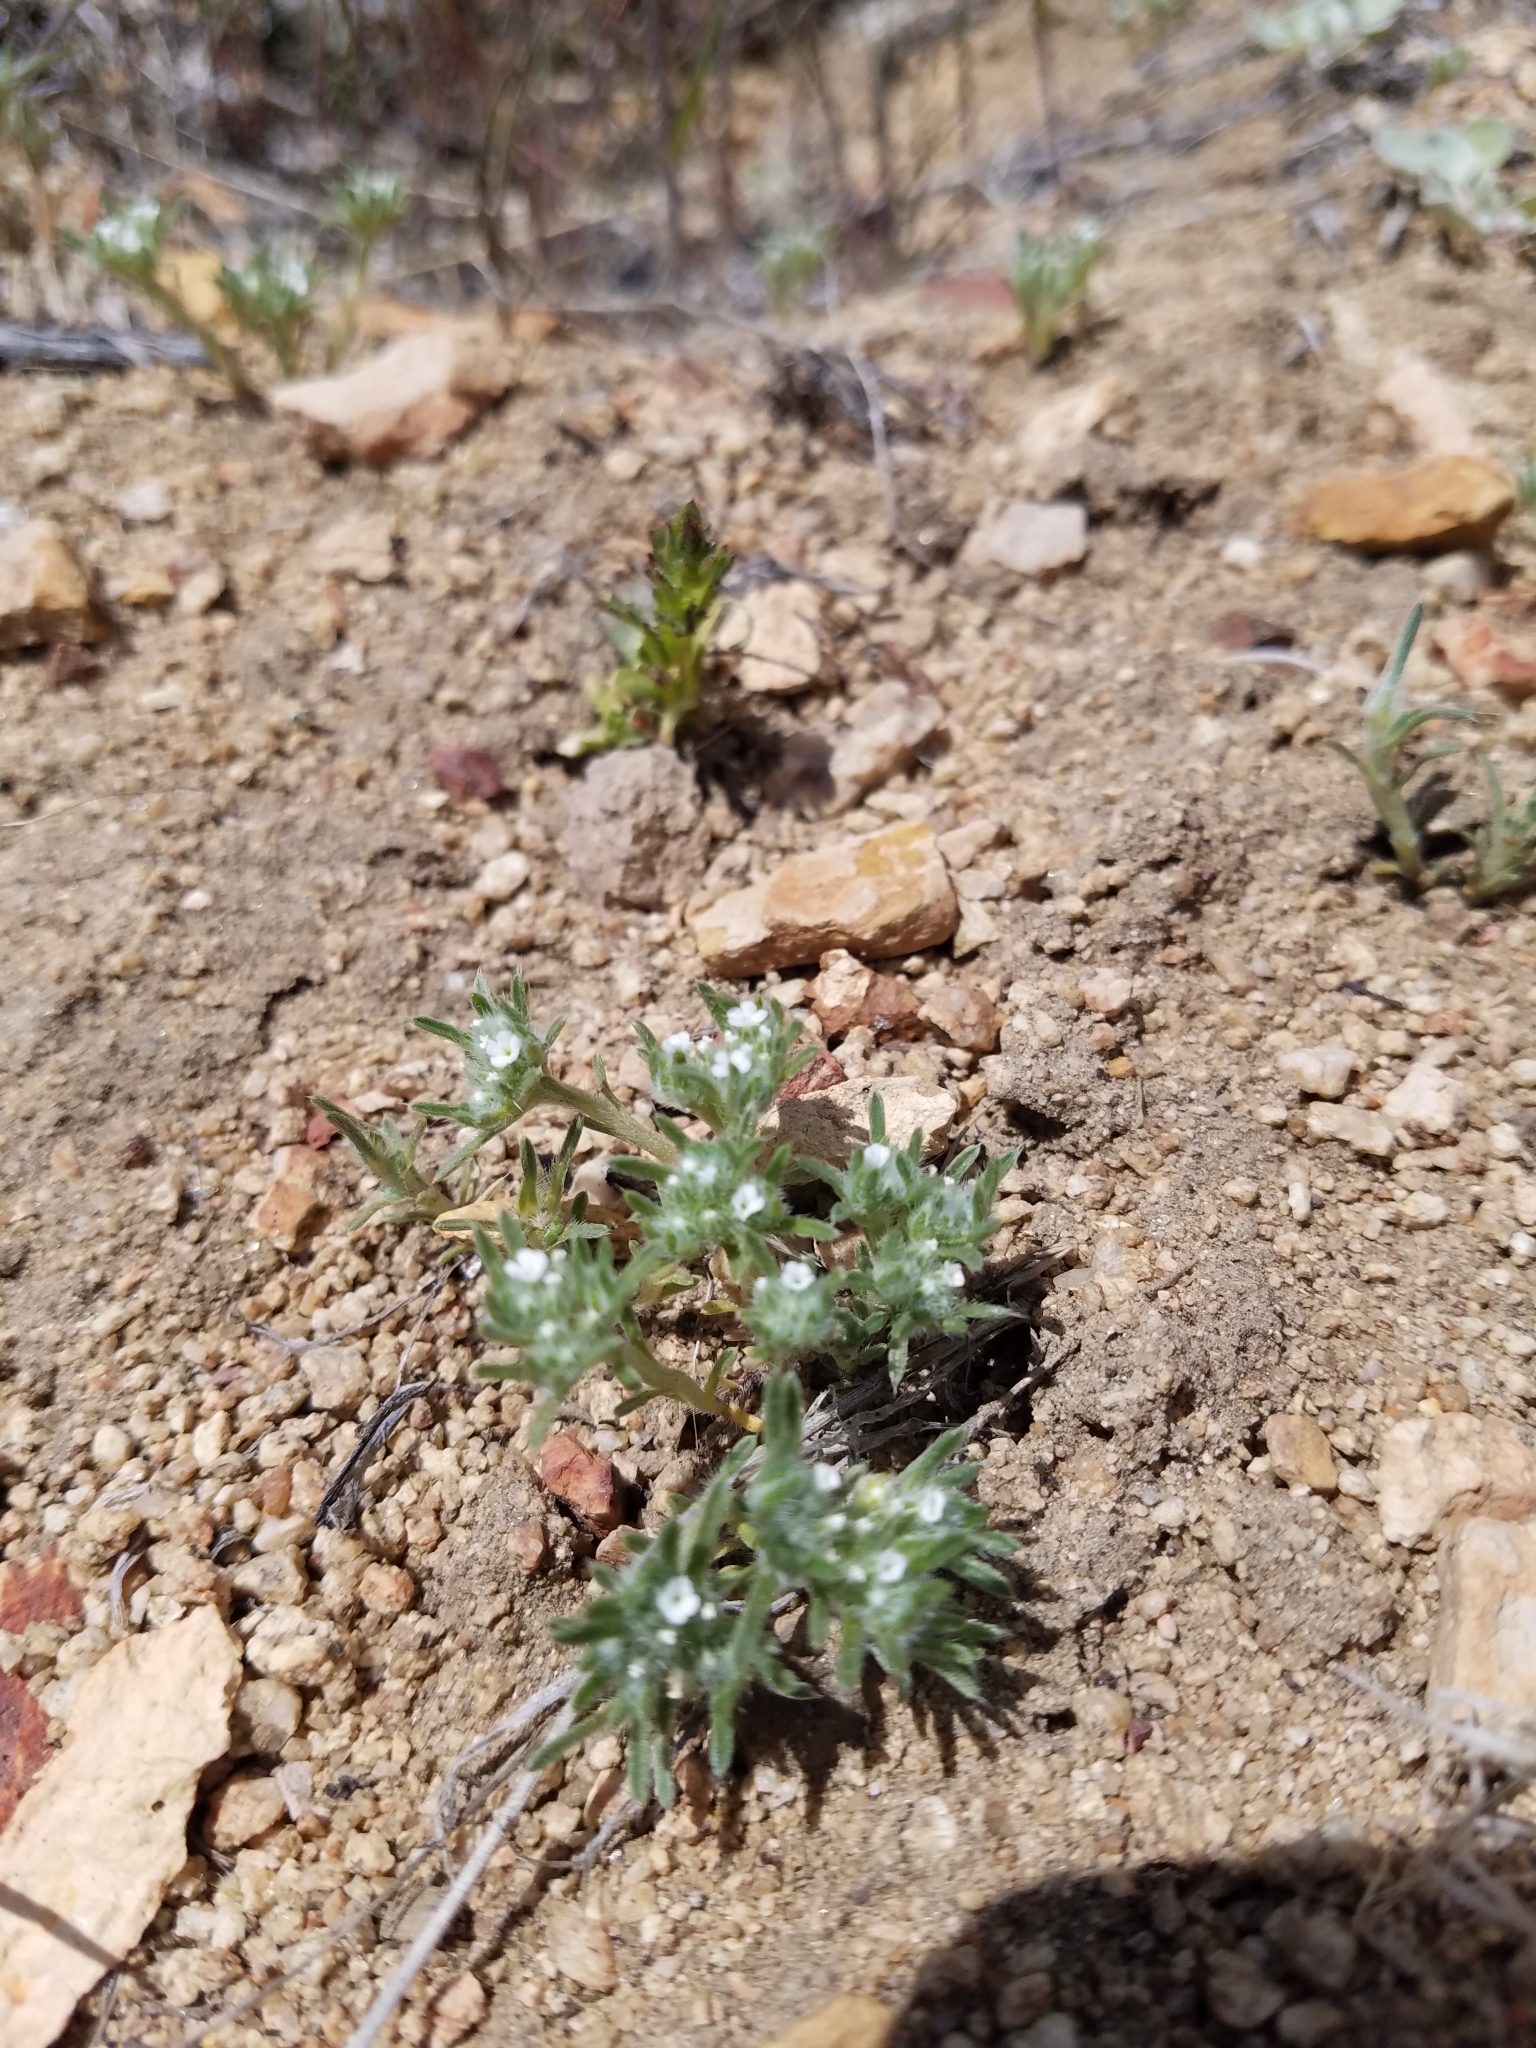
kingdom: Plantae
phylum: Tracheophyta
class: Magnoliopsida
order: Boraginales
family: Boraginaceae
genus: Greeneocharis
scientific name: Greeneocharis circumscissa
